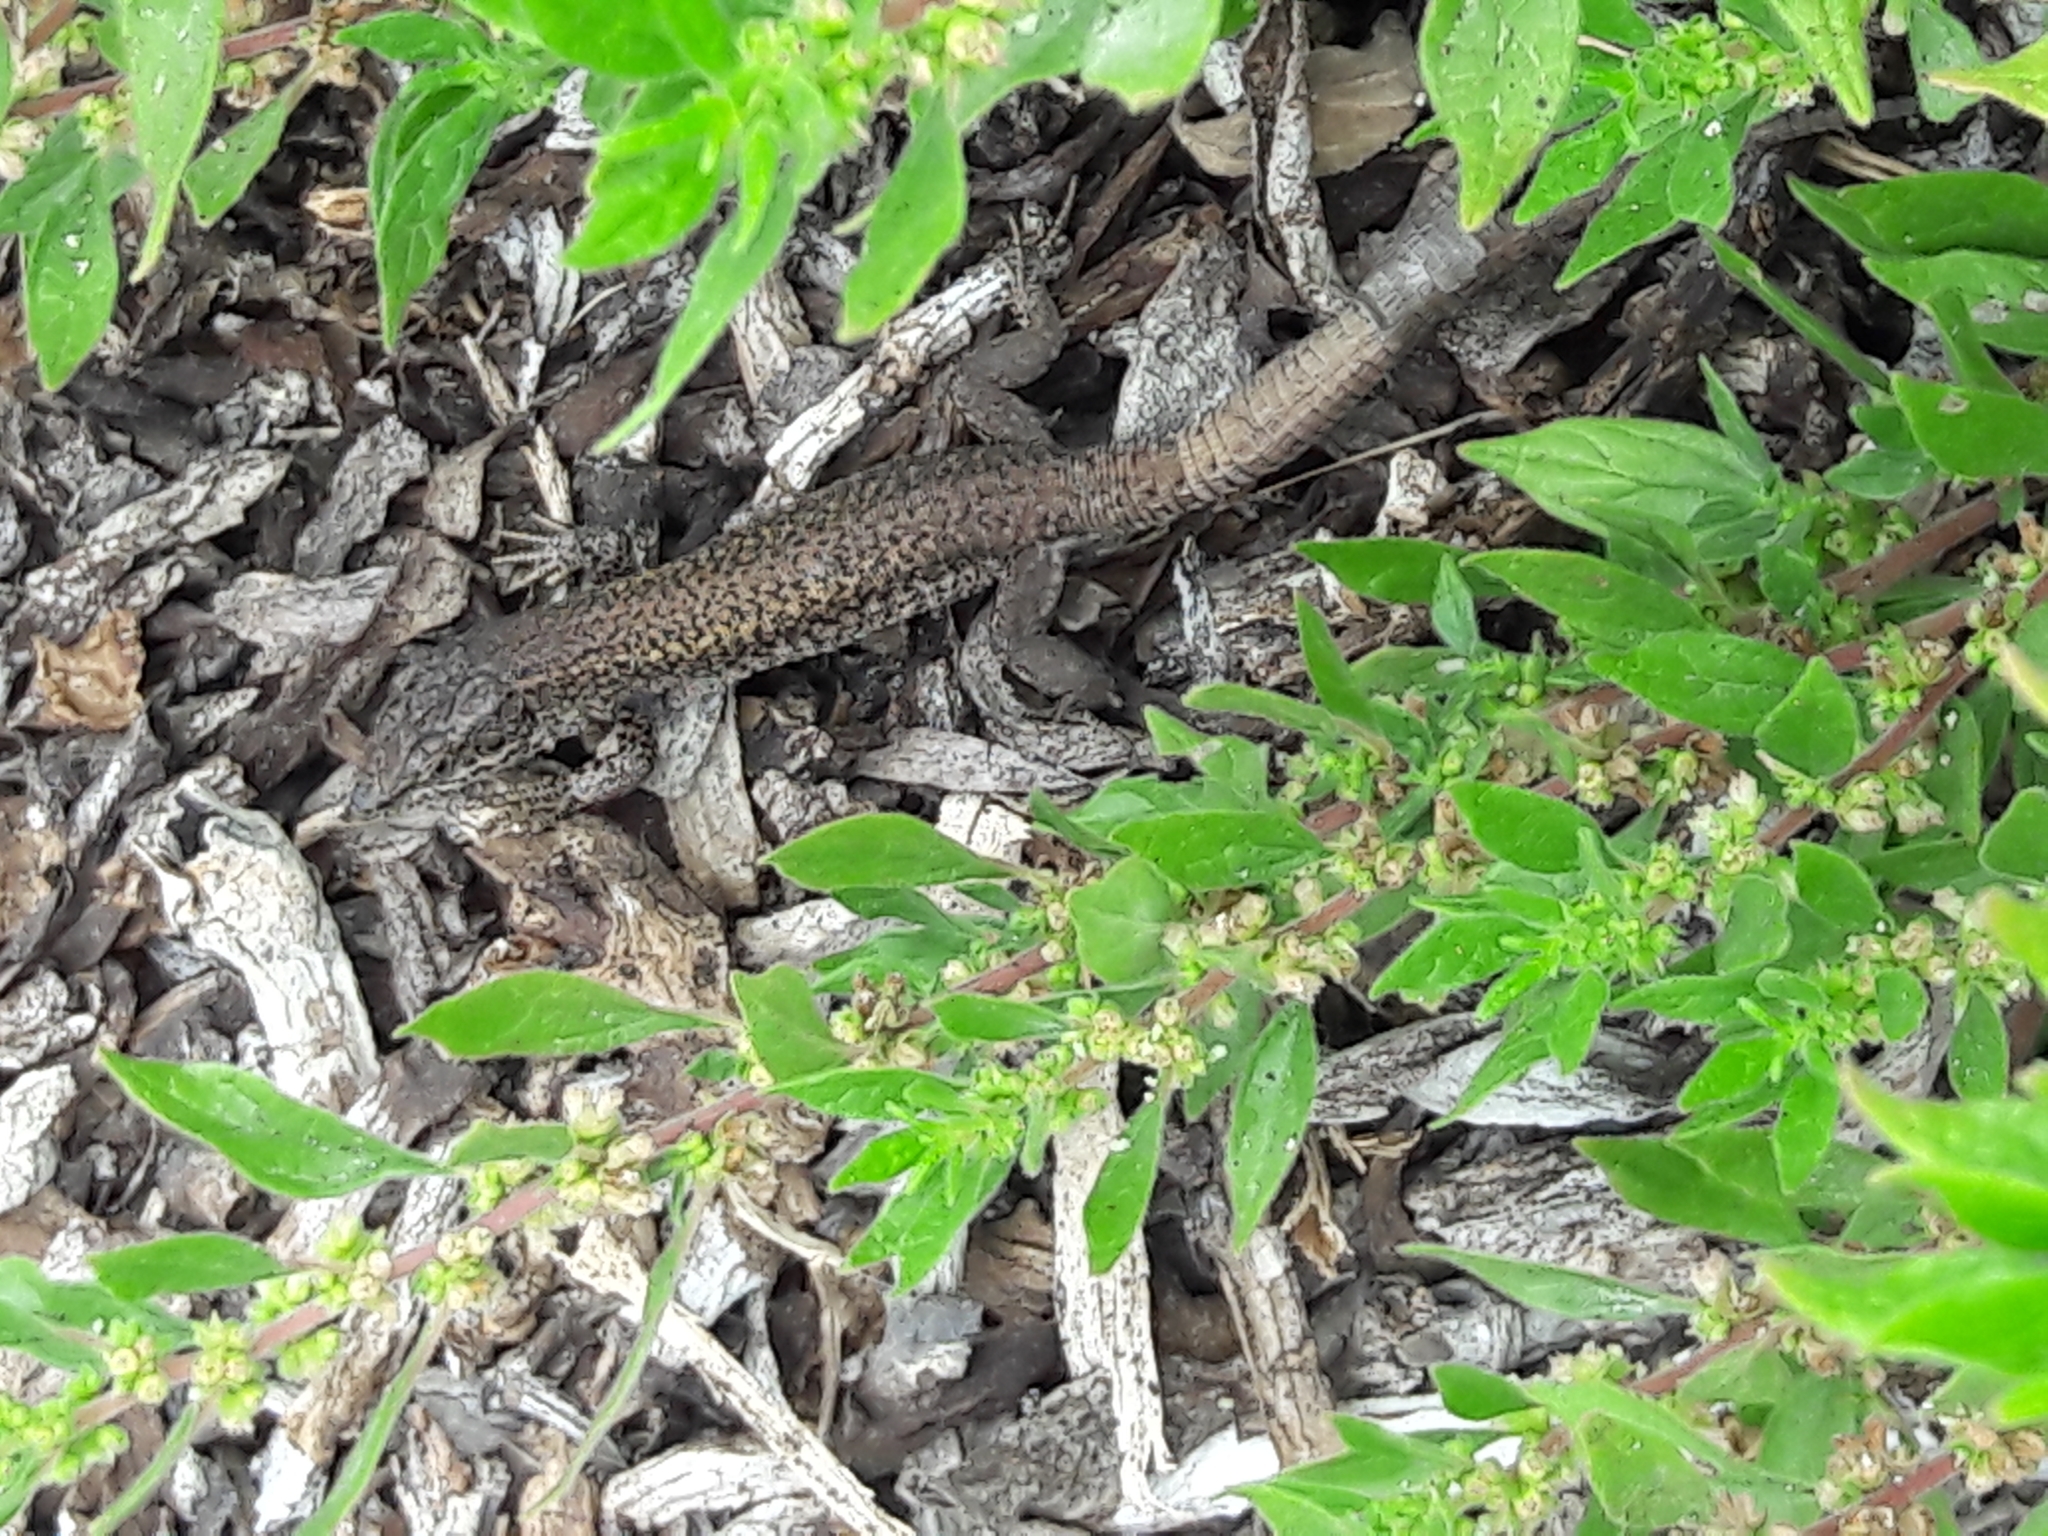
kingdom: Animalia
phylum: Chordata
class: Squamata
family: Lacertidae
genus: Podarcis
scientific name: Podarcis carbonelli
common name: Carbonelli's wall lizard
